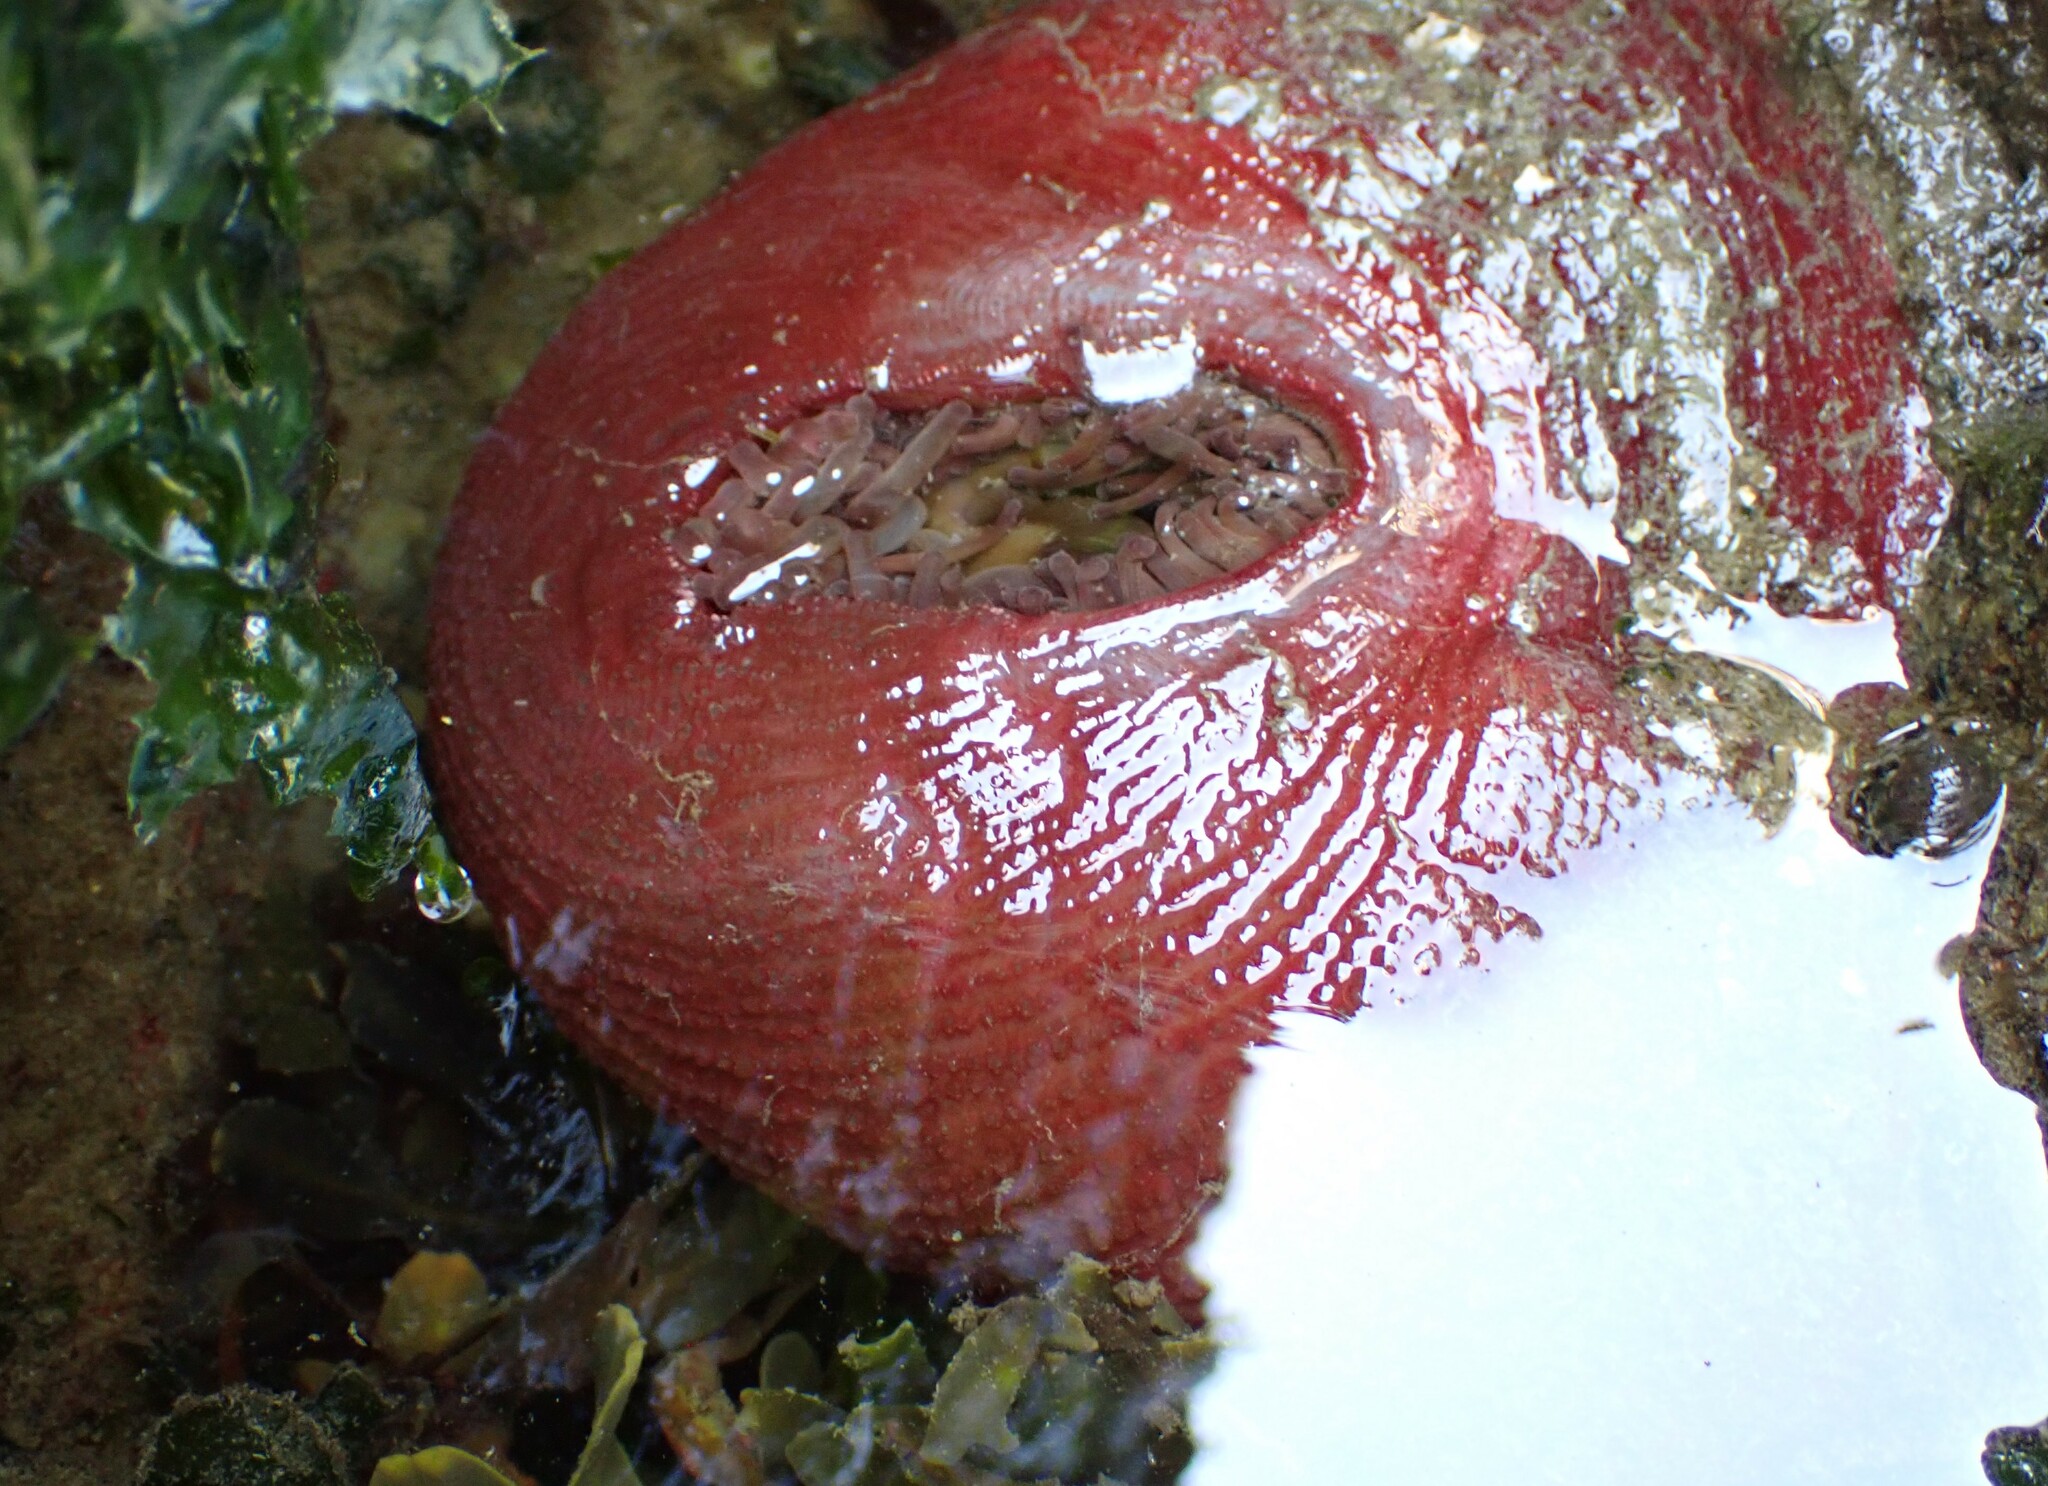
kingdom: Animalia
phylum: Cnidaria
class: Anthozoa
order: Actiniaria
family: Actiniidae
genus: Urticina
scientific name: Urticina grebelnyi
